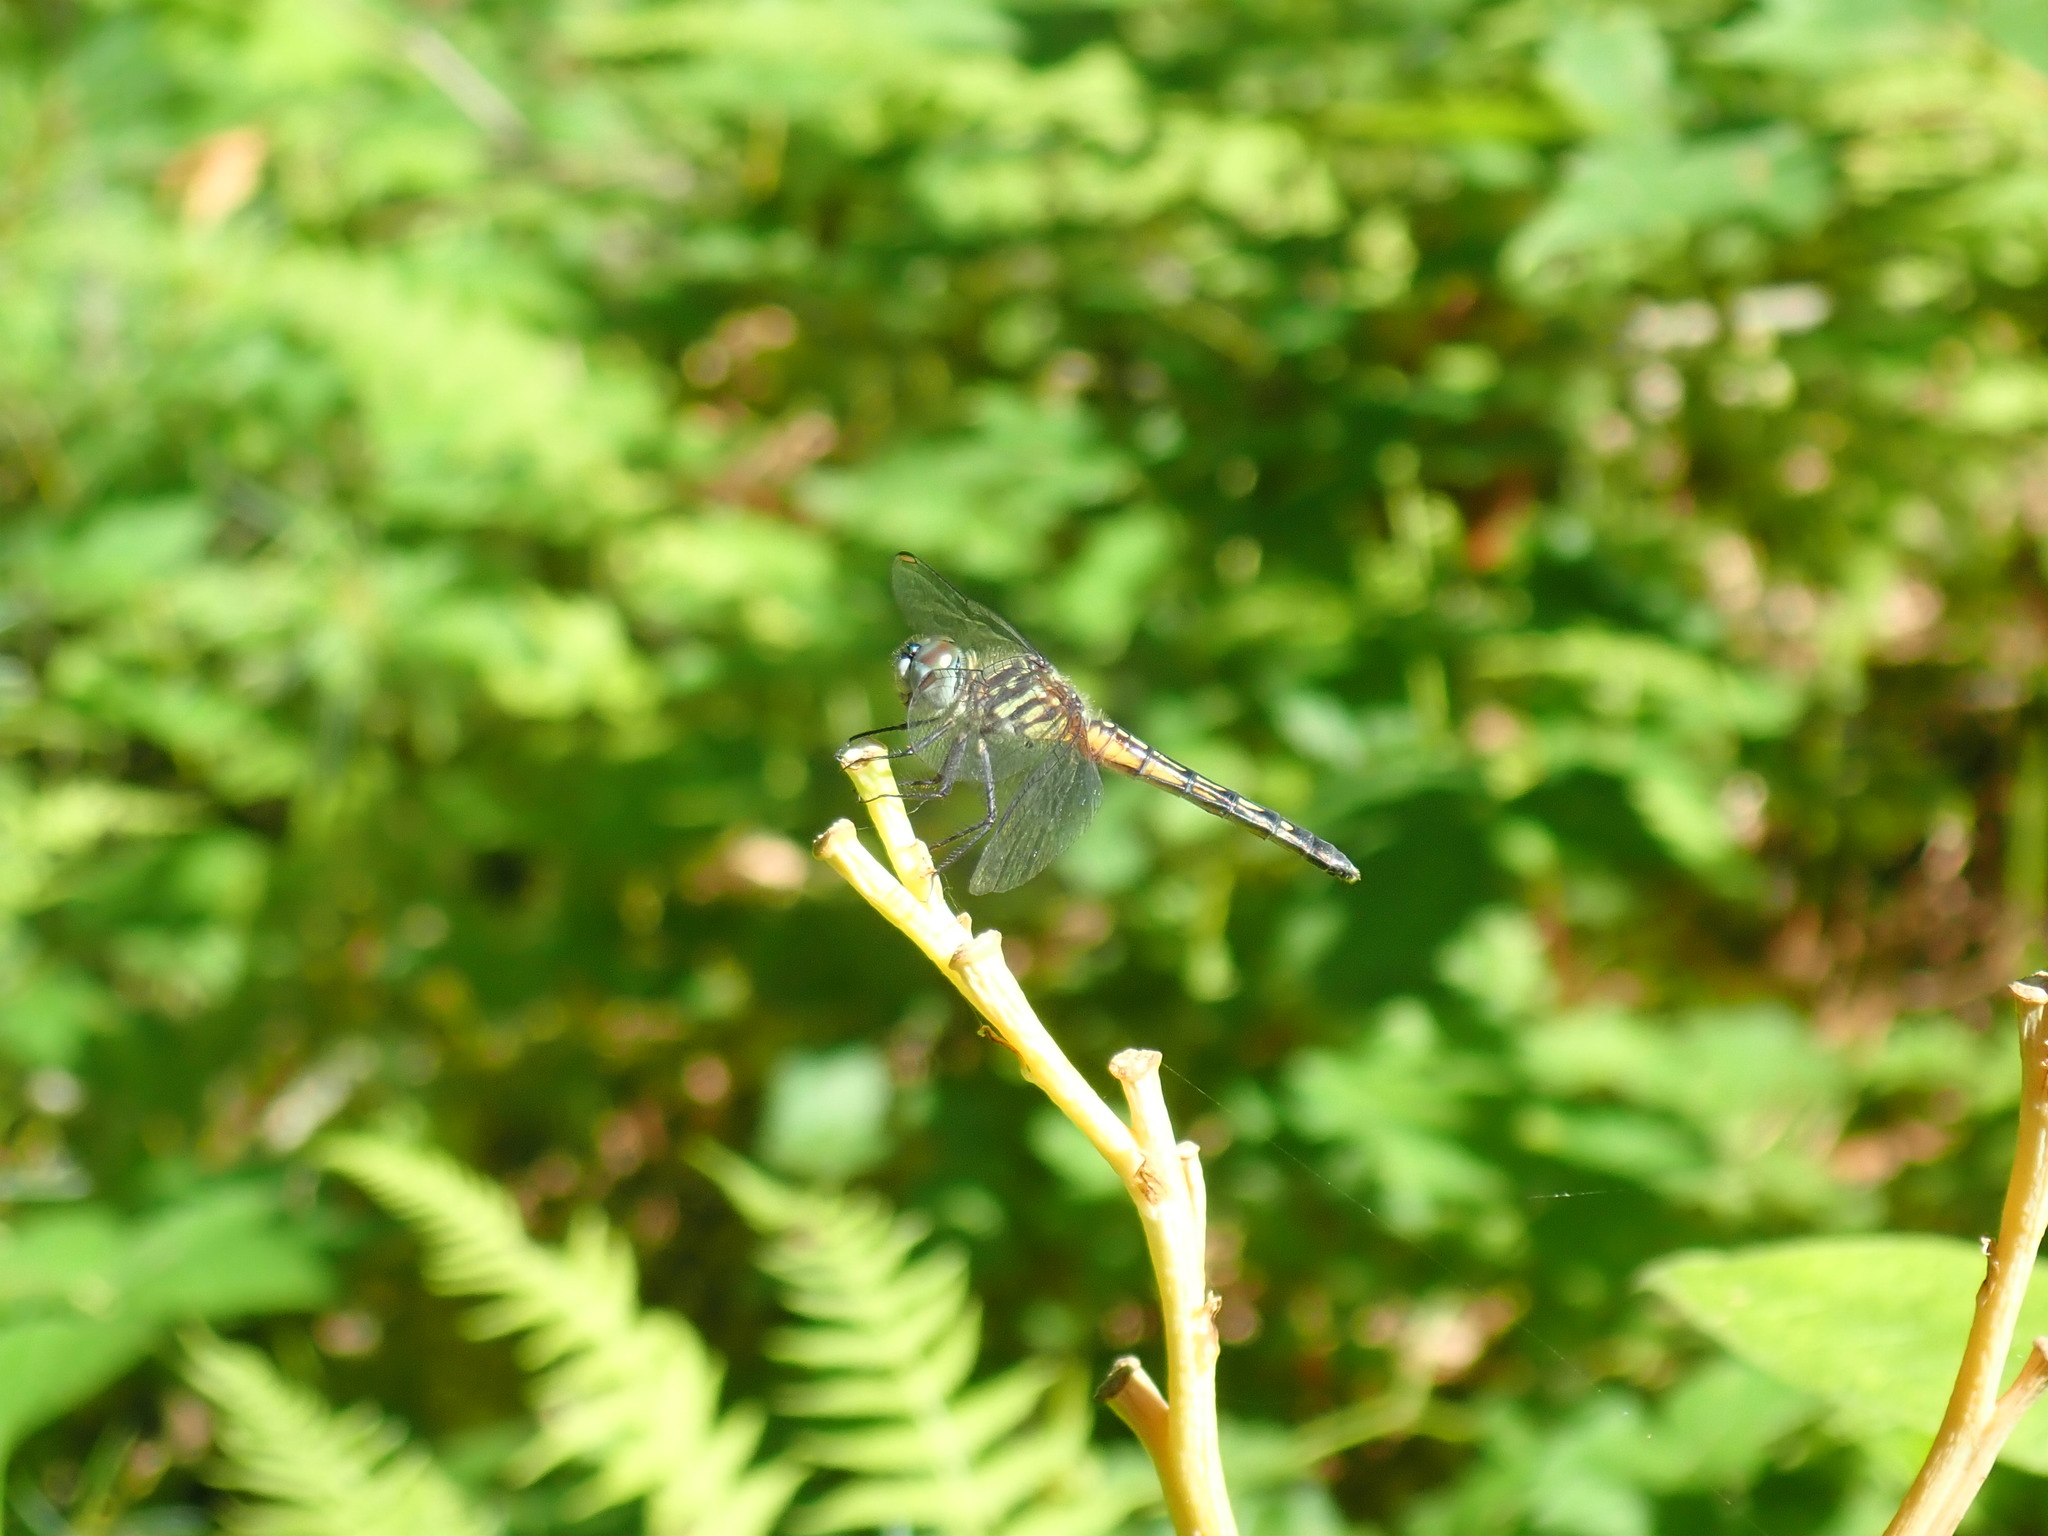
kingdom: Animalia
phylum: Arthropoda
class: Insecta
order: Odonata
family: Libellulidae
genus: Pachydiplax
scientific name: Pachydiplax longipennis
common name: Blue dasher
